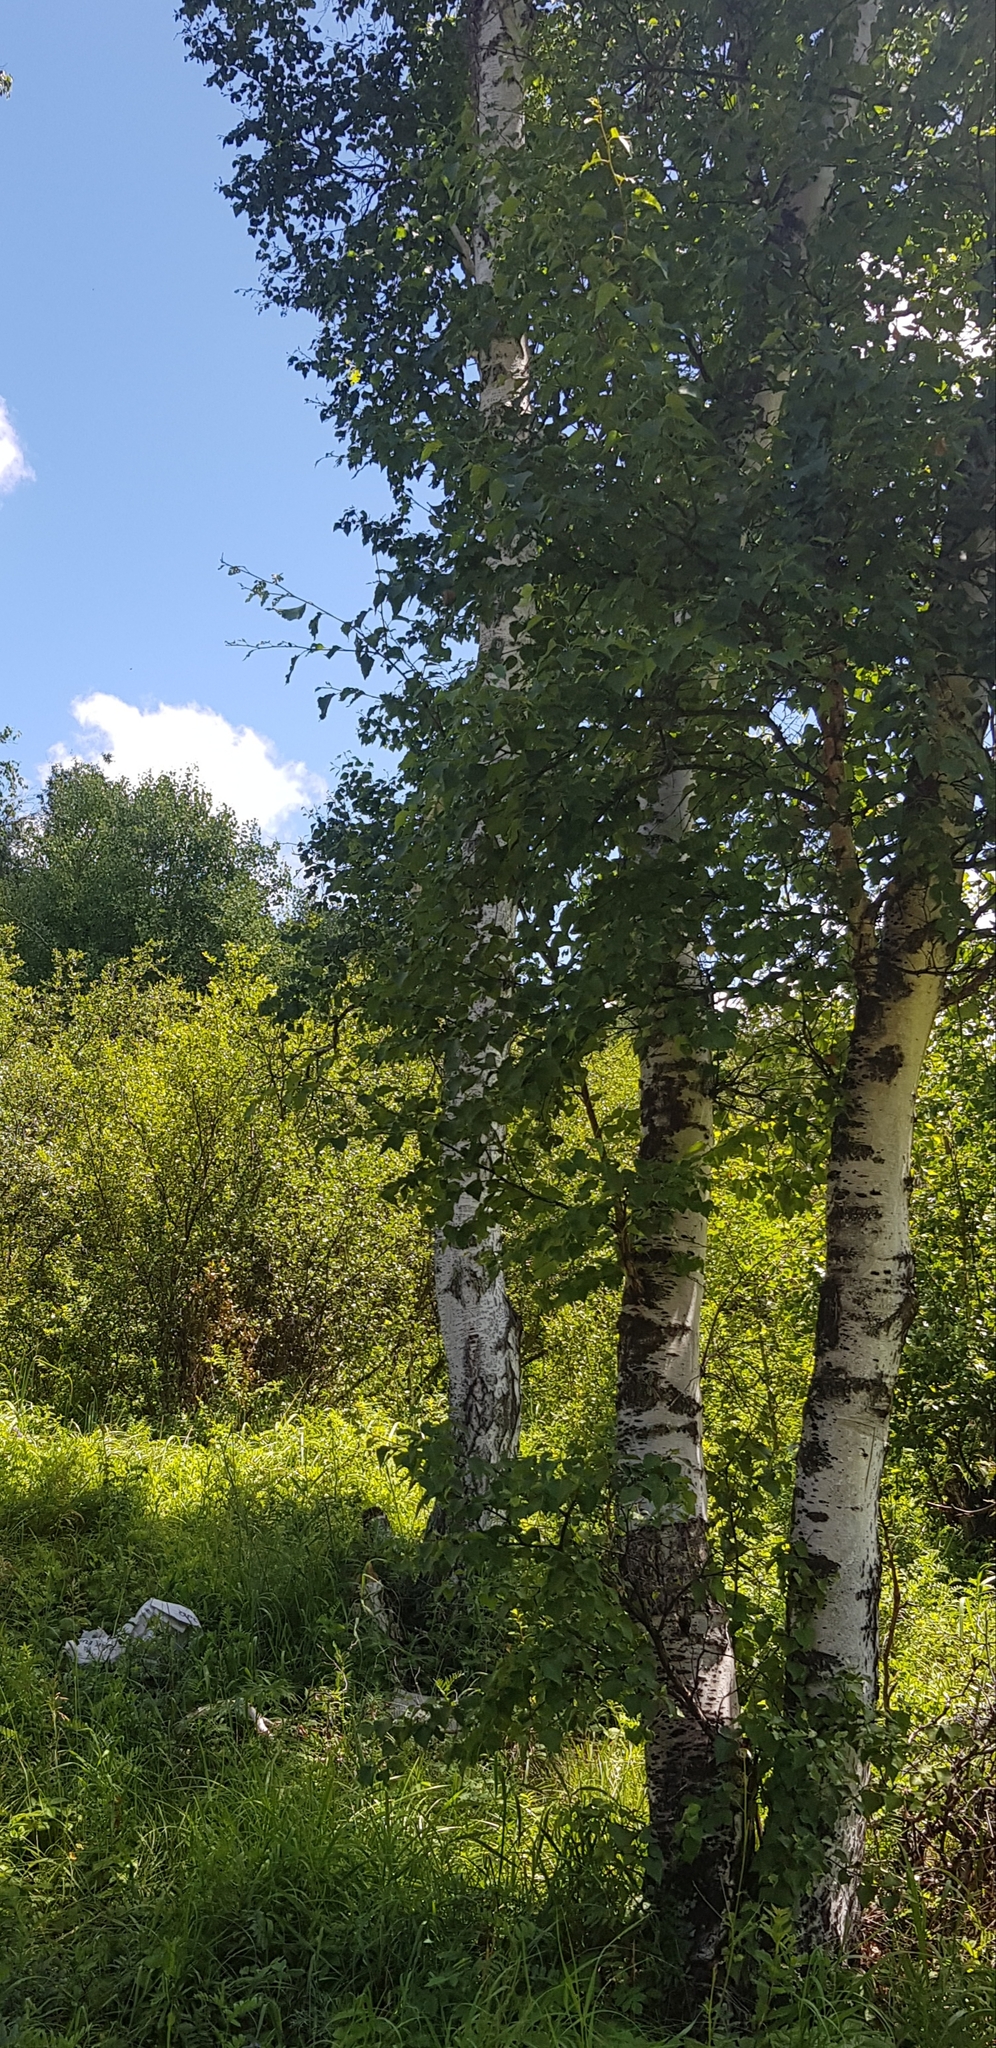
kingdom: Plantae
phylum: Tracheophyta
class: Magnoliopsida
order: Fagales
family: Betulaceae
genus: Betula
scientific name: Betula pendula
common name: Silver birch
